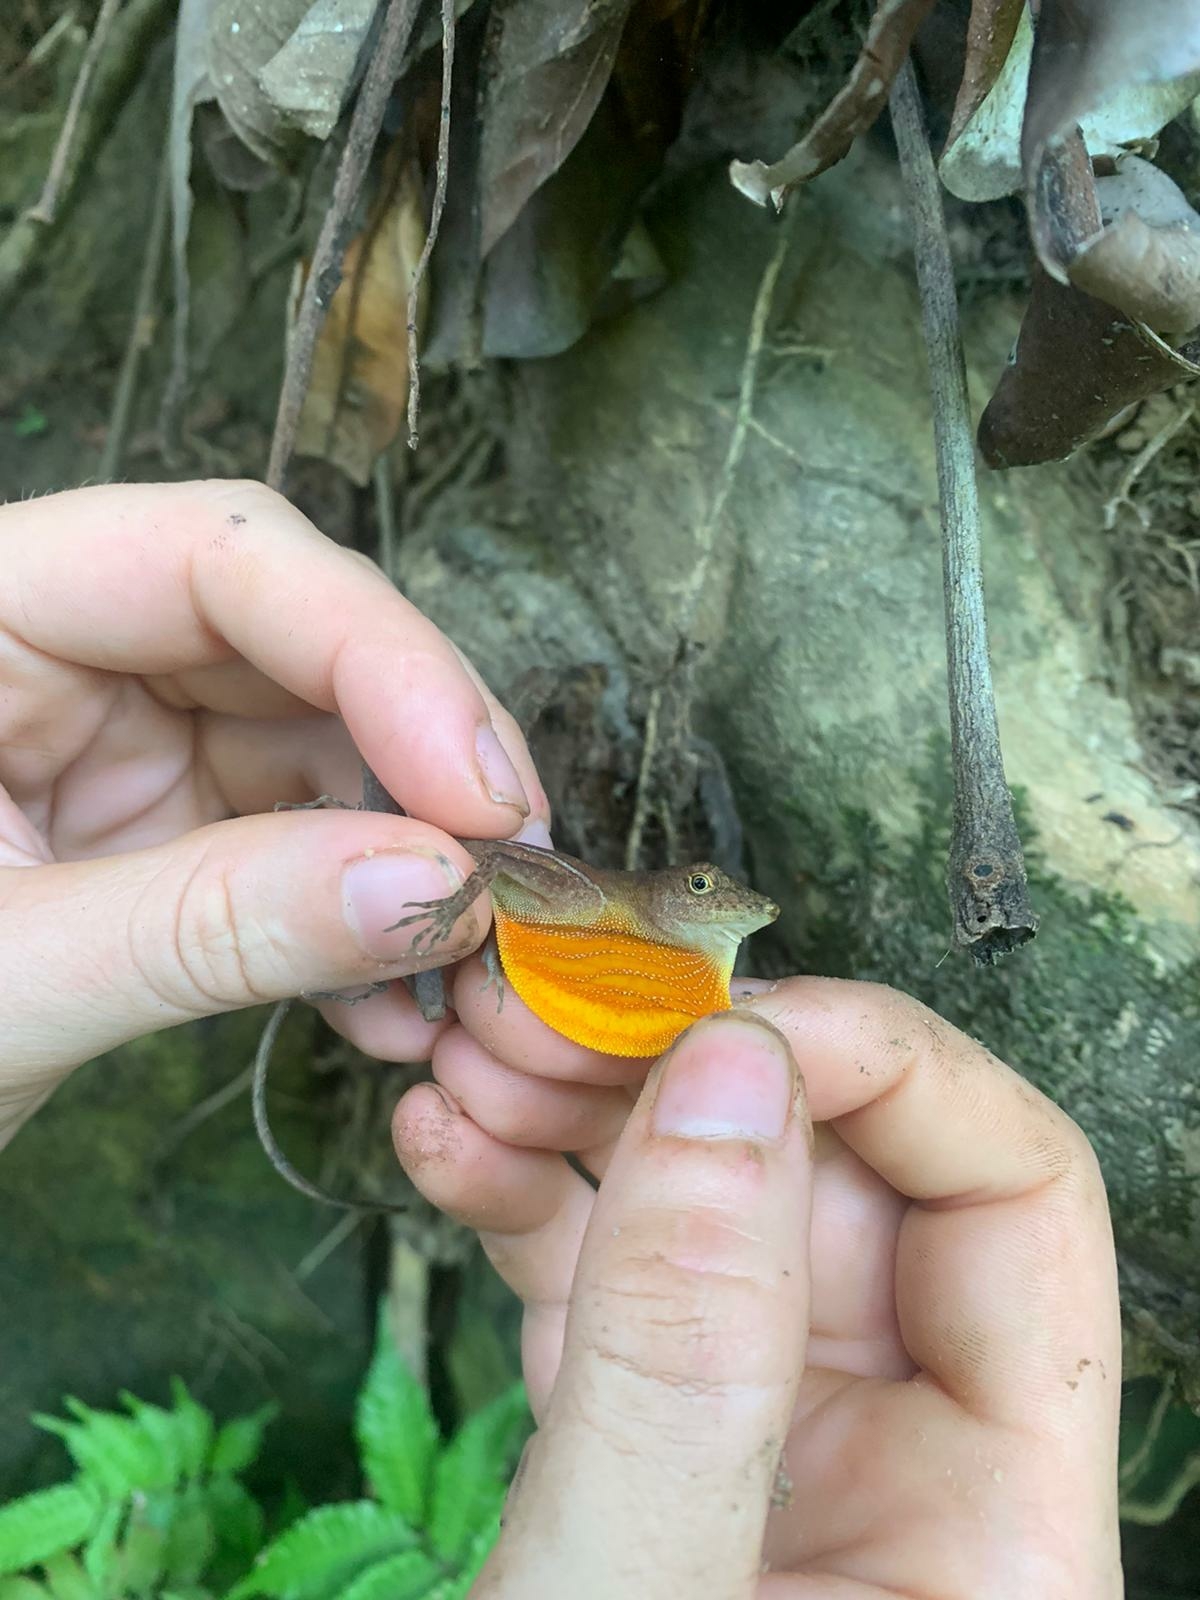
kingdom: Animalia
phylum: Chordata
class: Squamata
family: Dactyloidae
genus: Anolis
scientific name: Anolis osa
